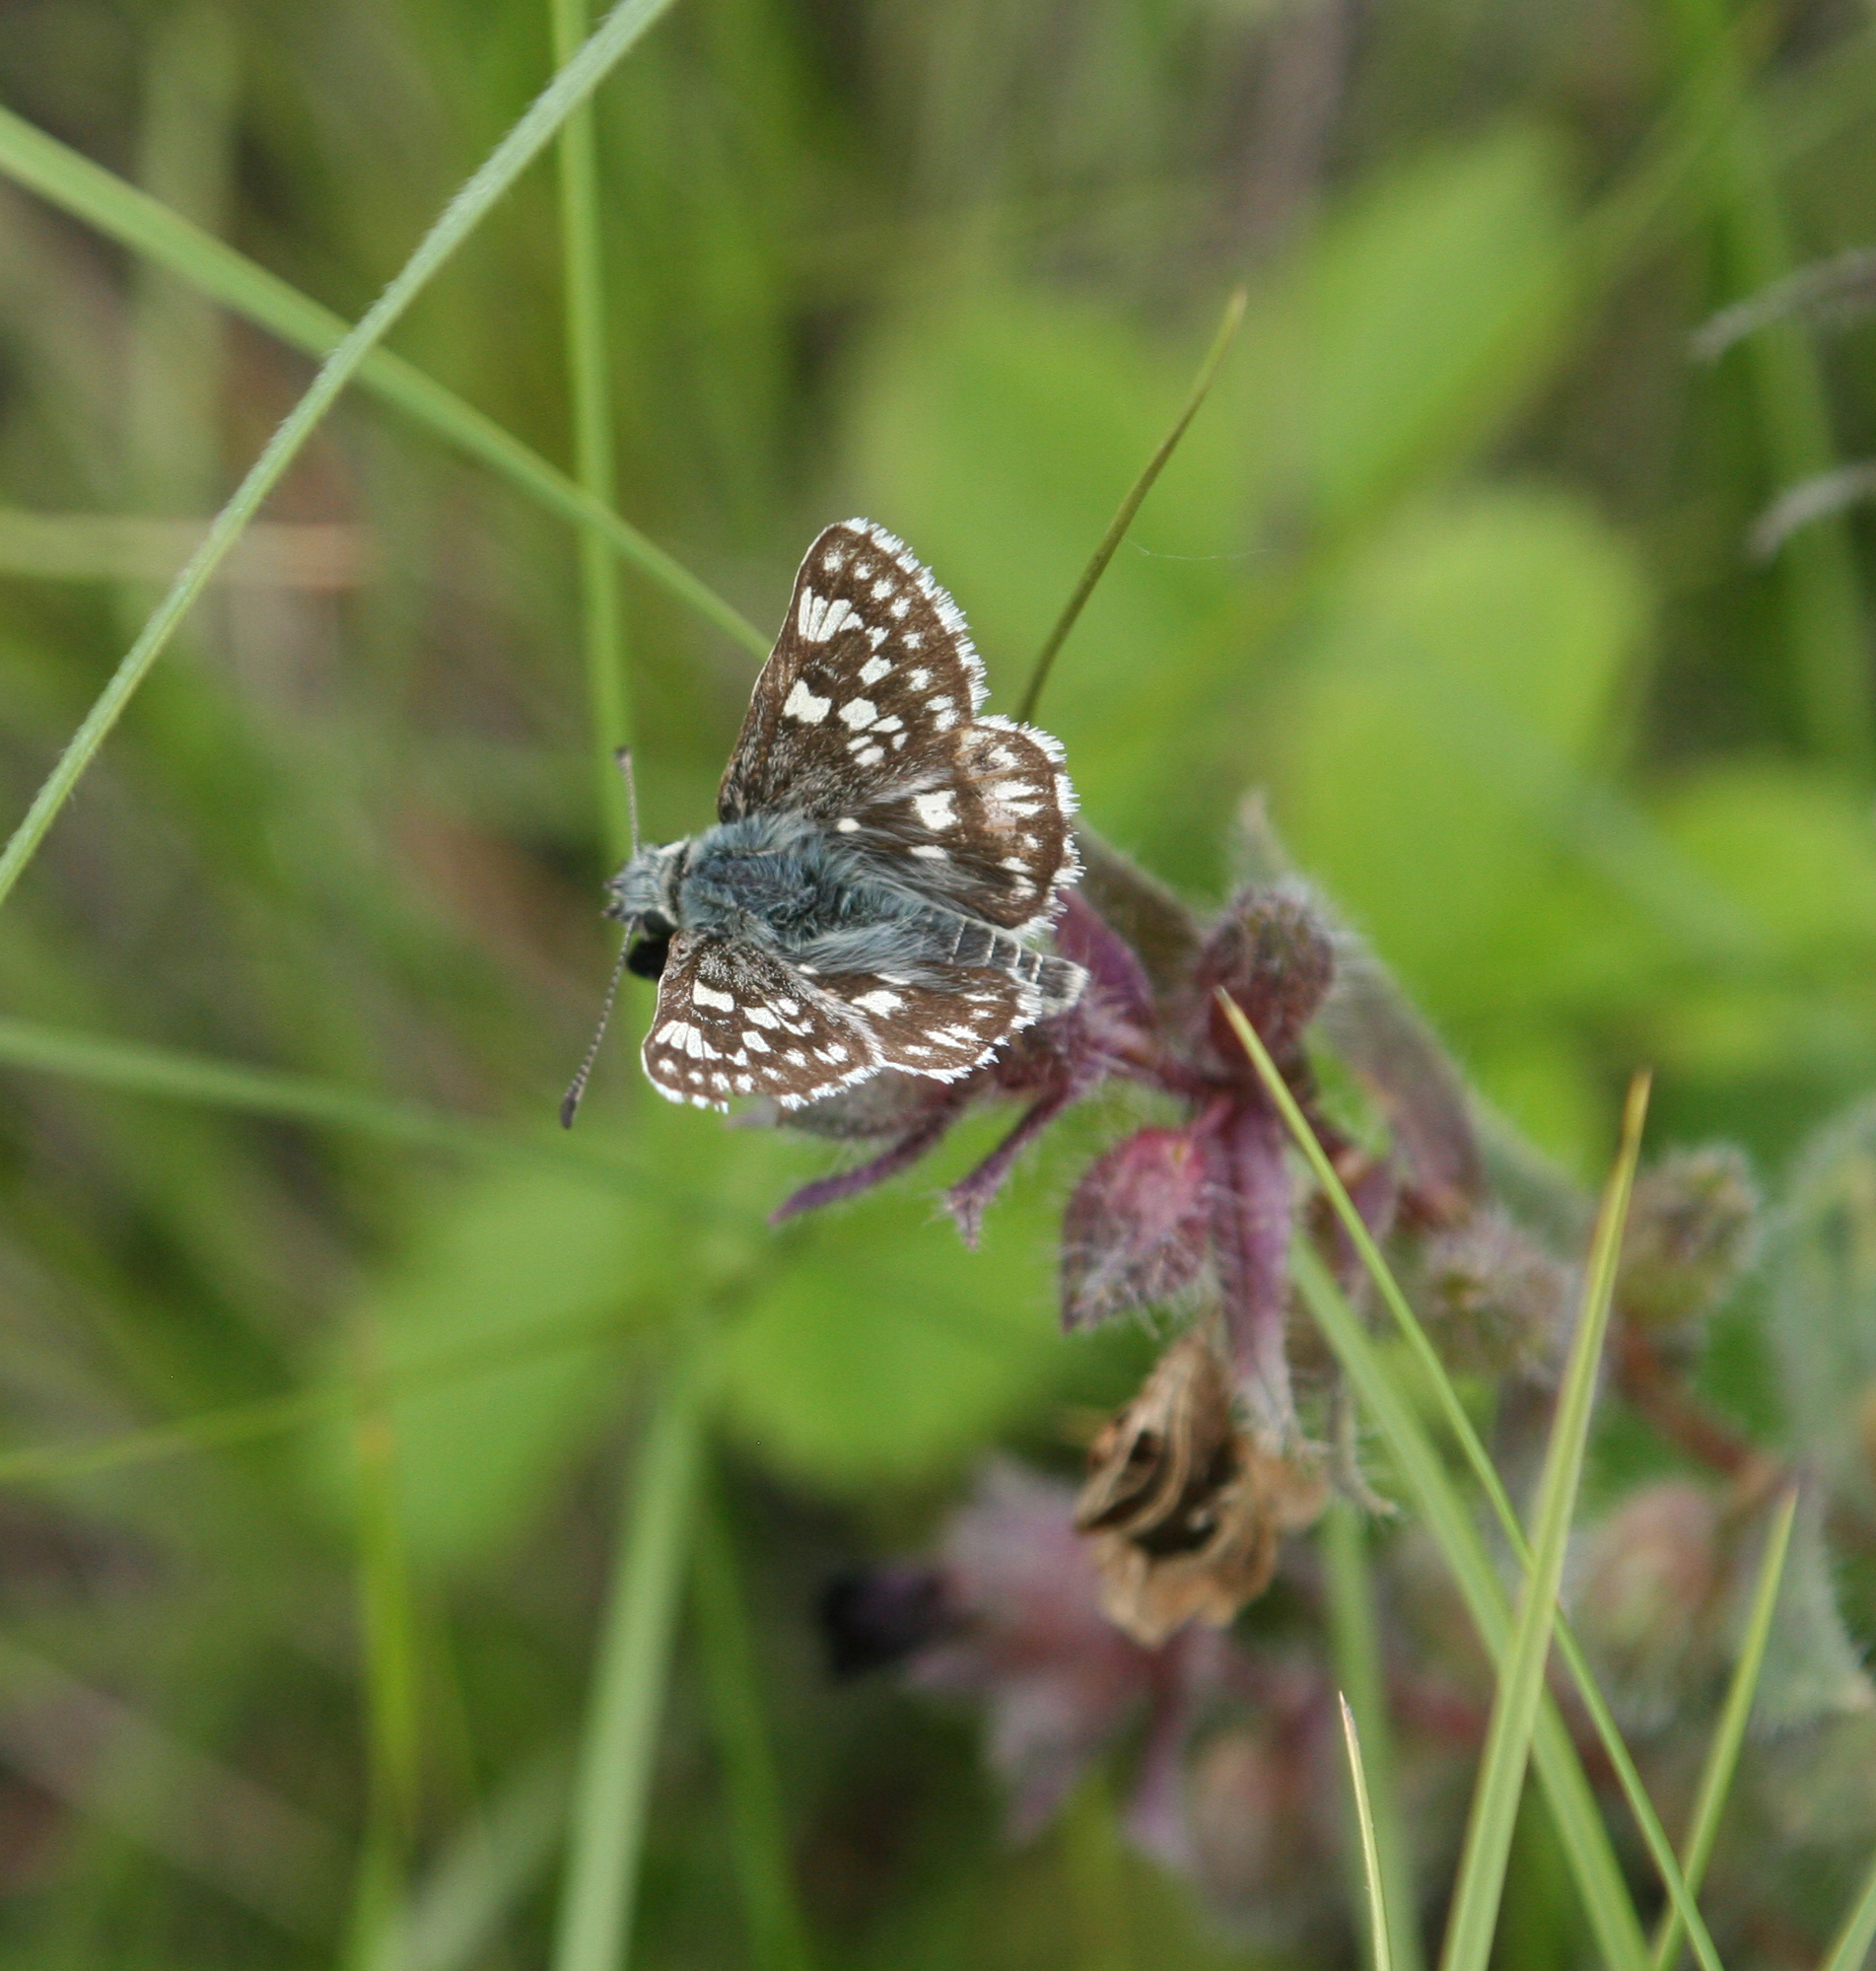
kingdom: Animalia
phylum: Arthropoda
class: Insecta
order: Lepidoptera
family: Hesperiidae
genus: Syrichtus
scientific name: Syrichtus cribrellum
